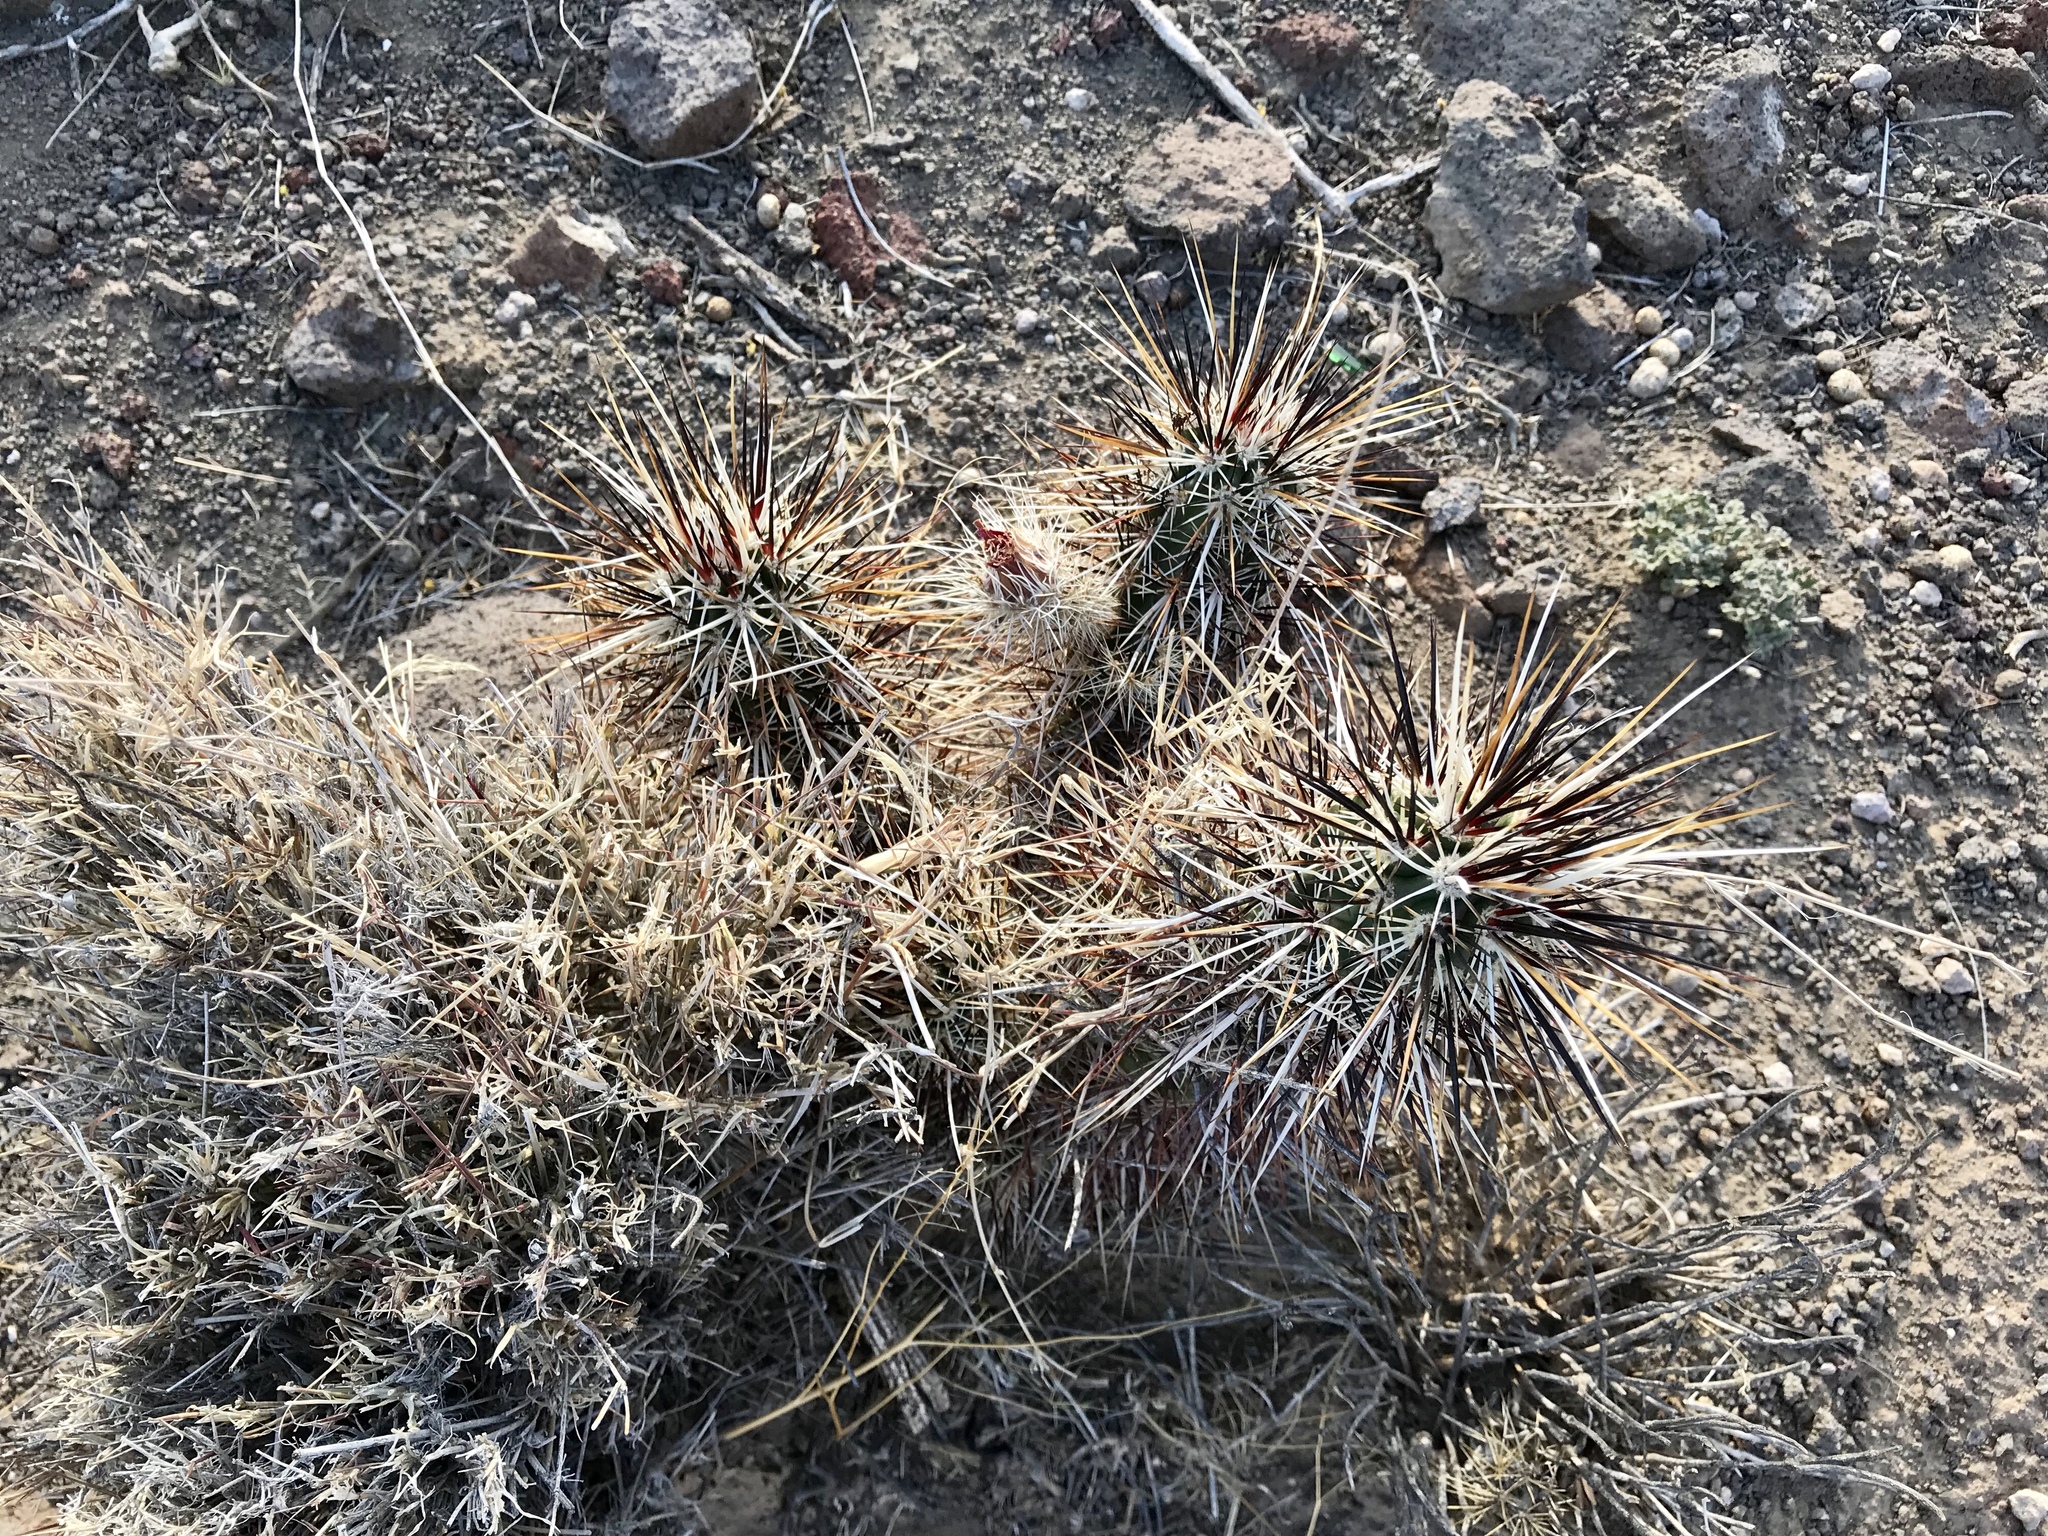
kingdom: Plantae
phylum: Tracheophyta
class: Magnoliopsida
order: Caryophyllales
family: Cactaceae
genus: Echinocereus
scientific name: Echinocereus engelmannii
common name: Engelmann's hedgehog cactus
